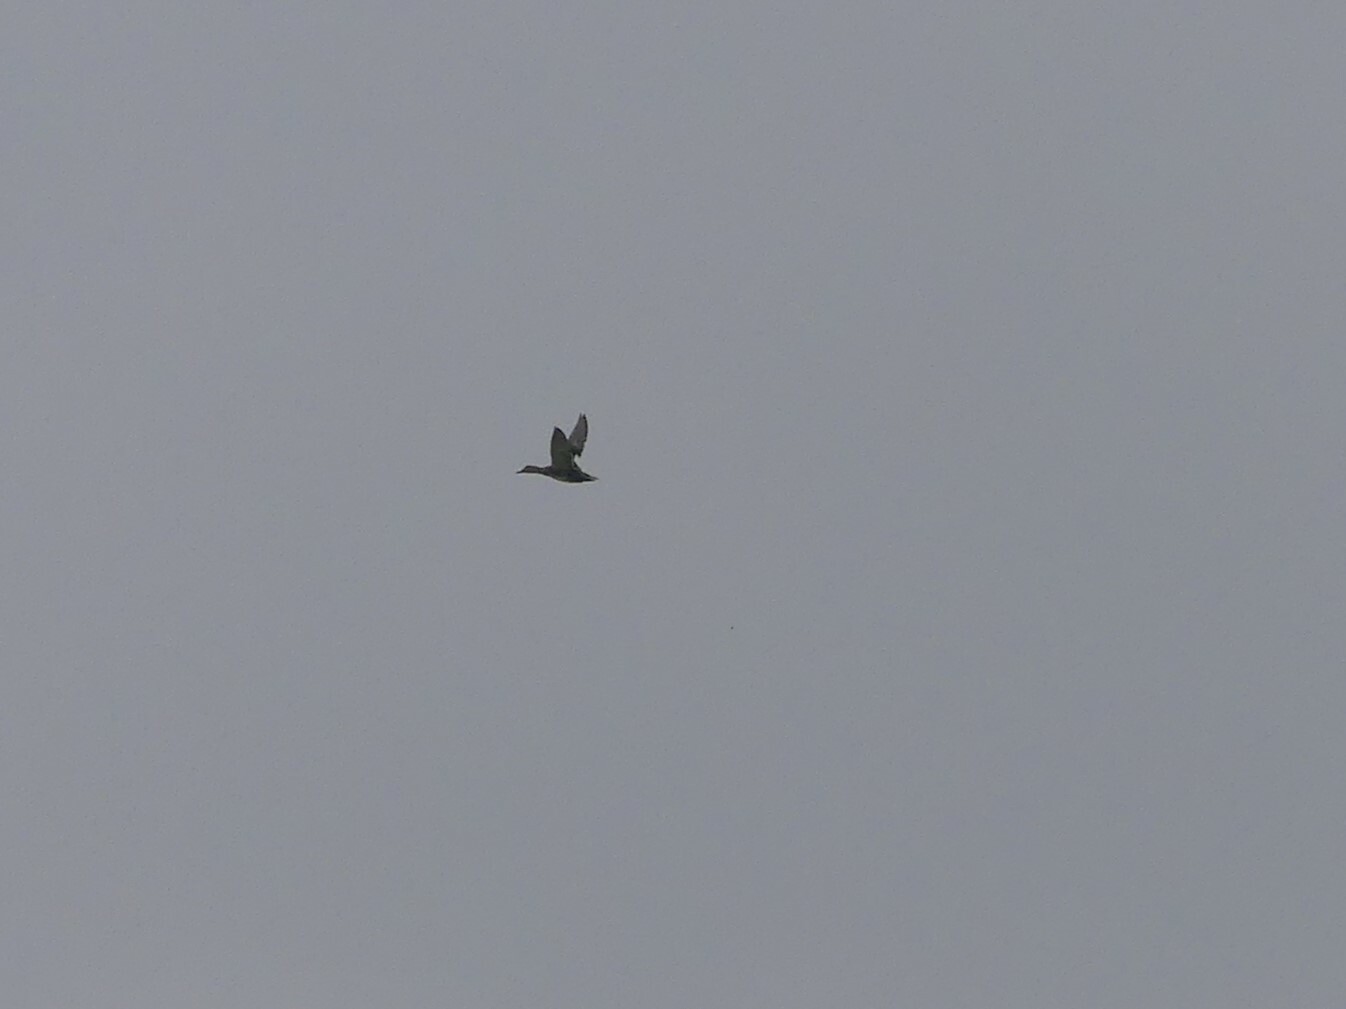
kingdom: Animalia
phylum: Chordata
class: Aves
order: Anseriformes
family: Anatidae
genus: Mareca
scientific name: Mareca strepera
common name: Gadwall
